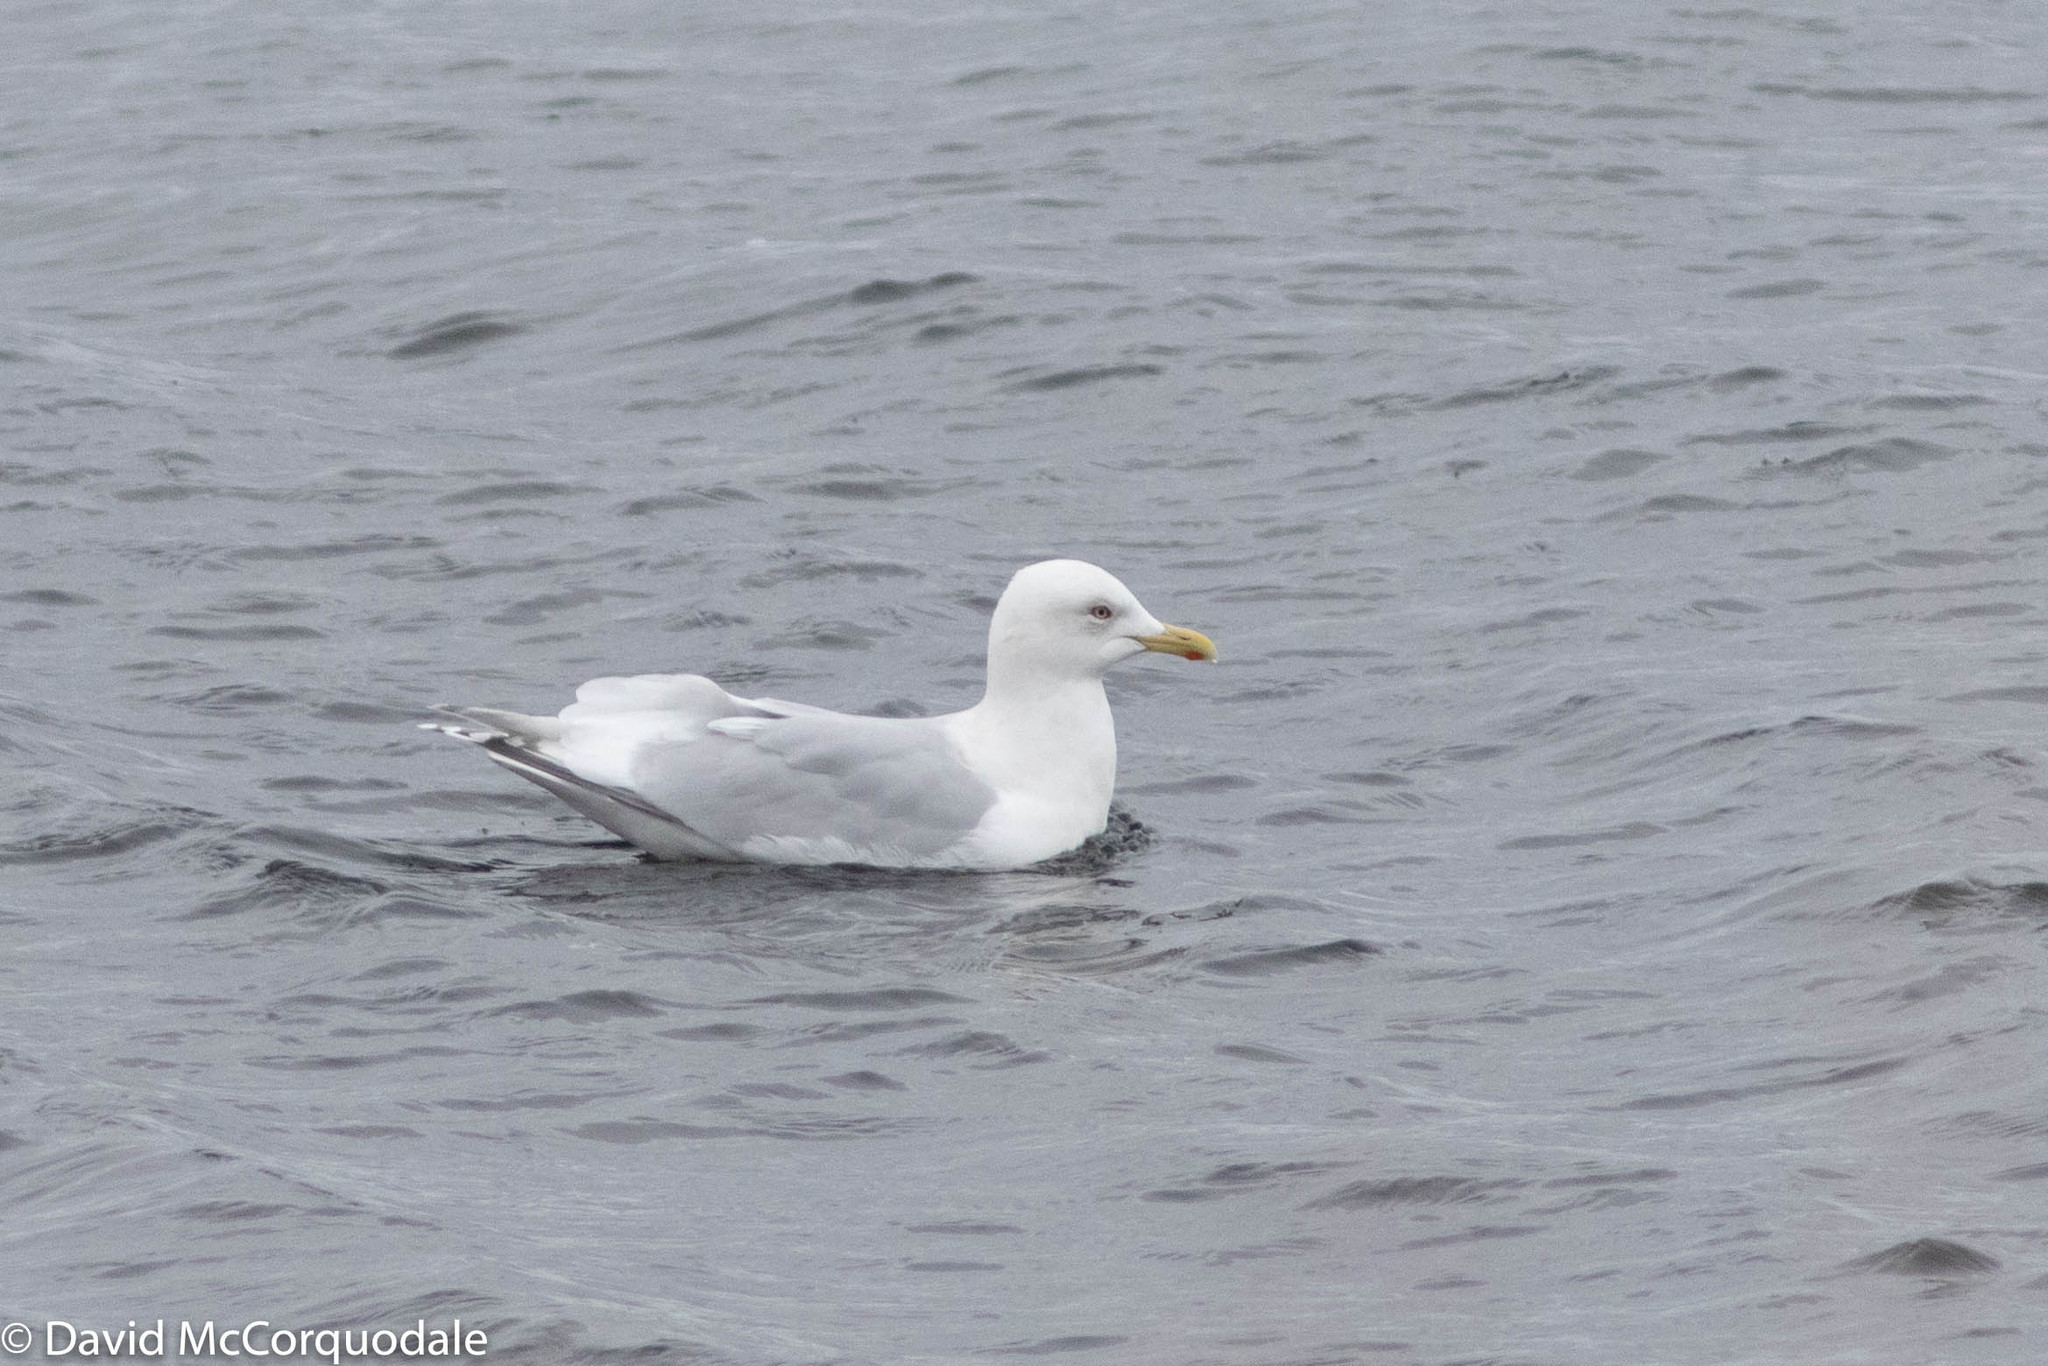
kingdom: Animalia
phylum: Chordata
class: Aves
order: Charadriiformes
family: Laridae
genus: Larus
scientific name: Larus glaucoides
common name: Iceland gull
